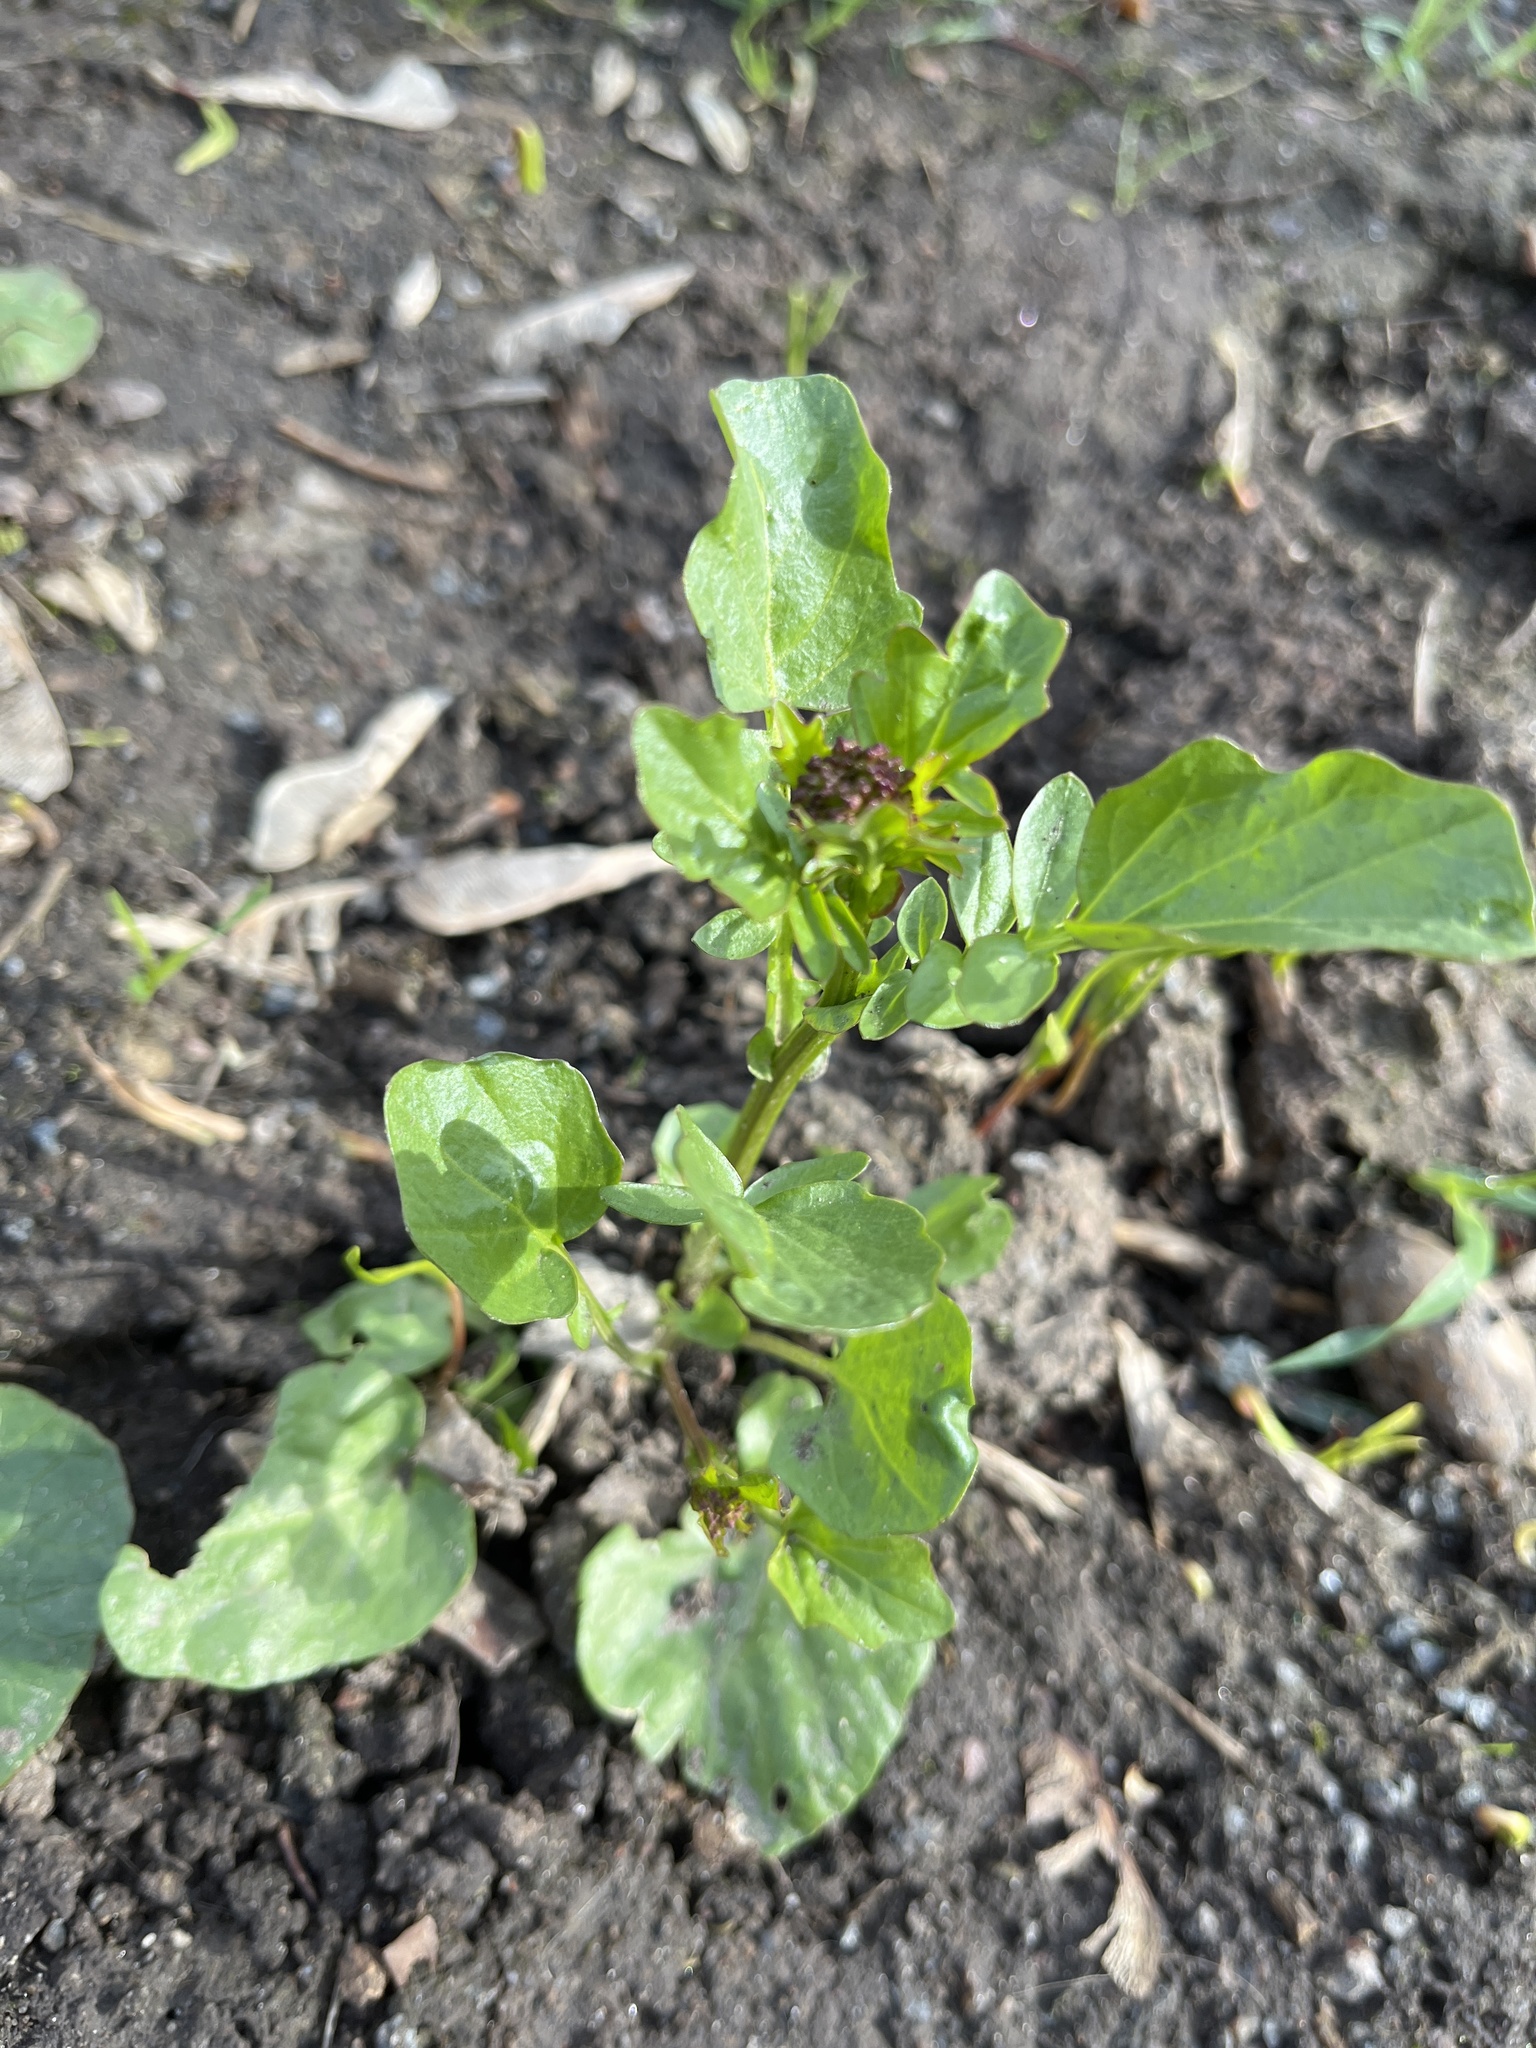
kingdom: Plantae
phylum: Tracheophyta
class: Magnoliopsida
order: Brassicales
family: Brassicaceae
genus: Barbarea
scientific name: Barbarea vulgaris
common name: Cressy-greens
